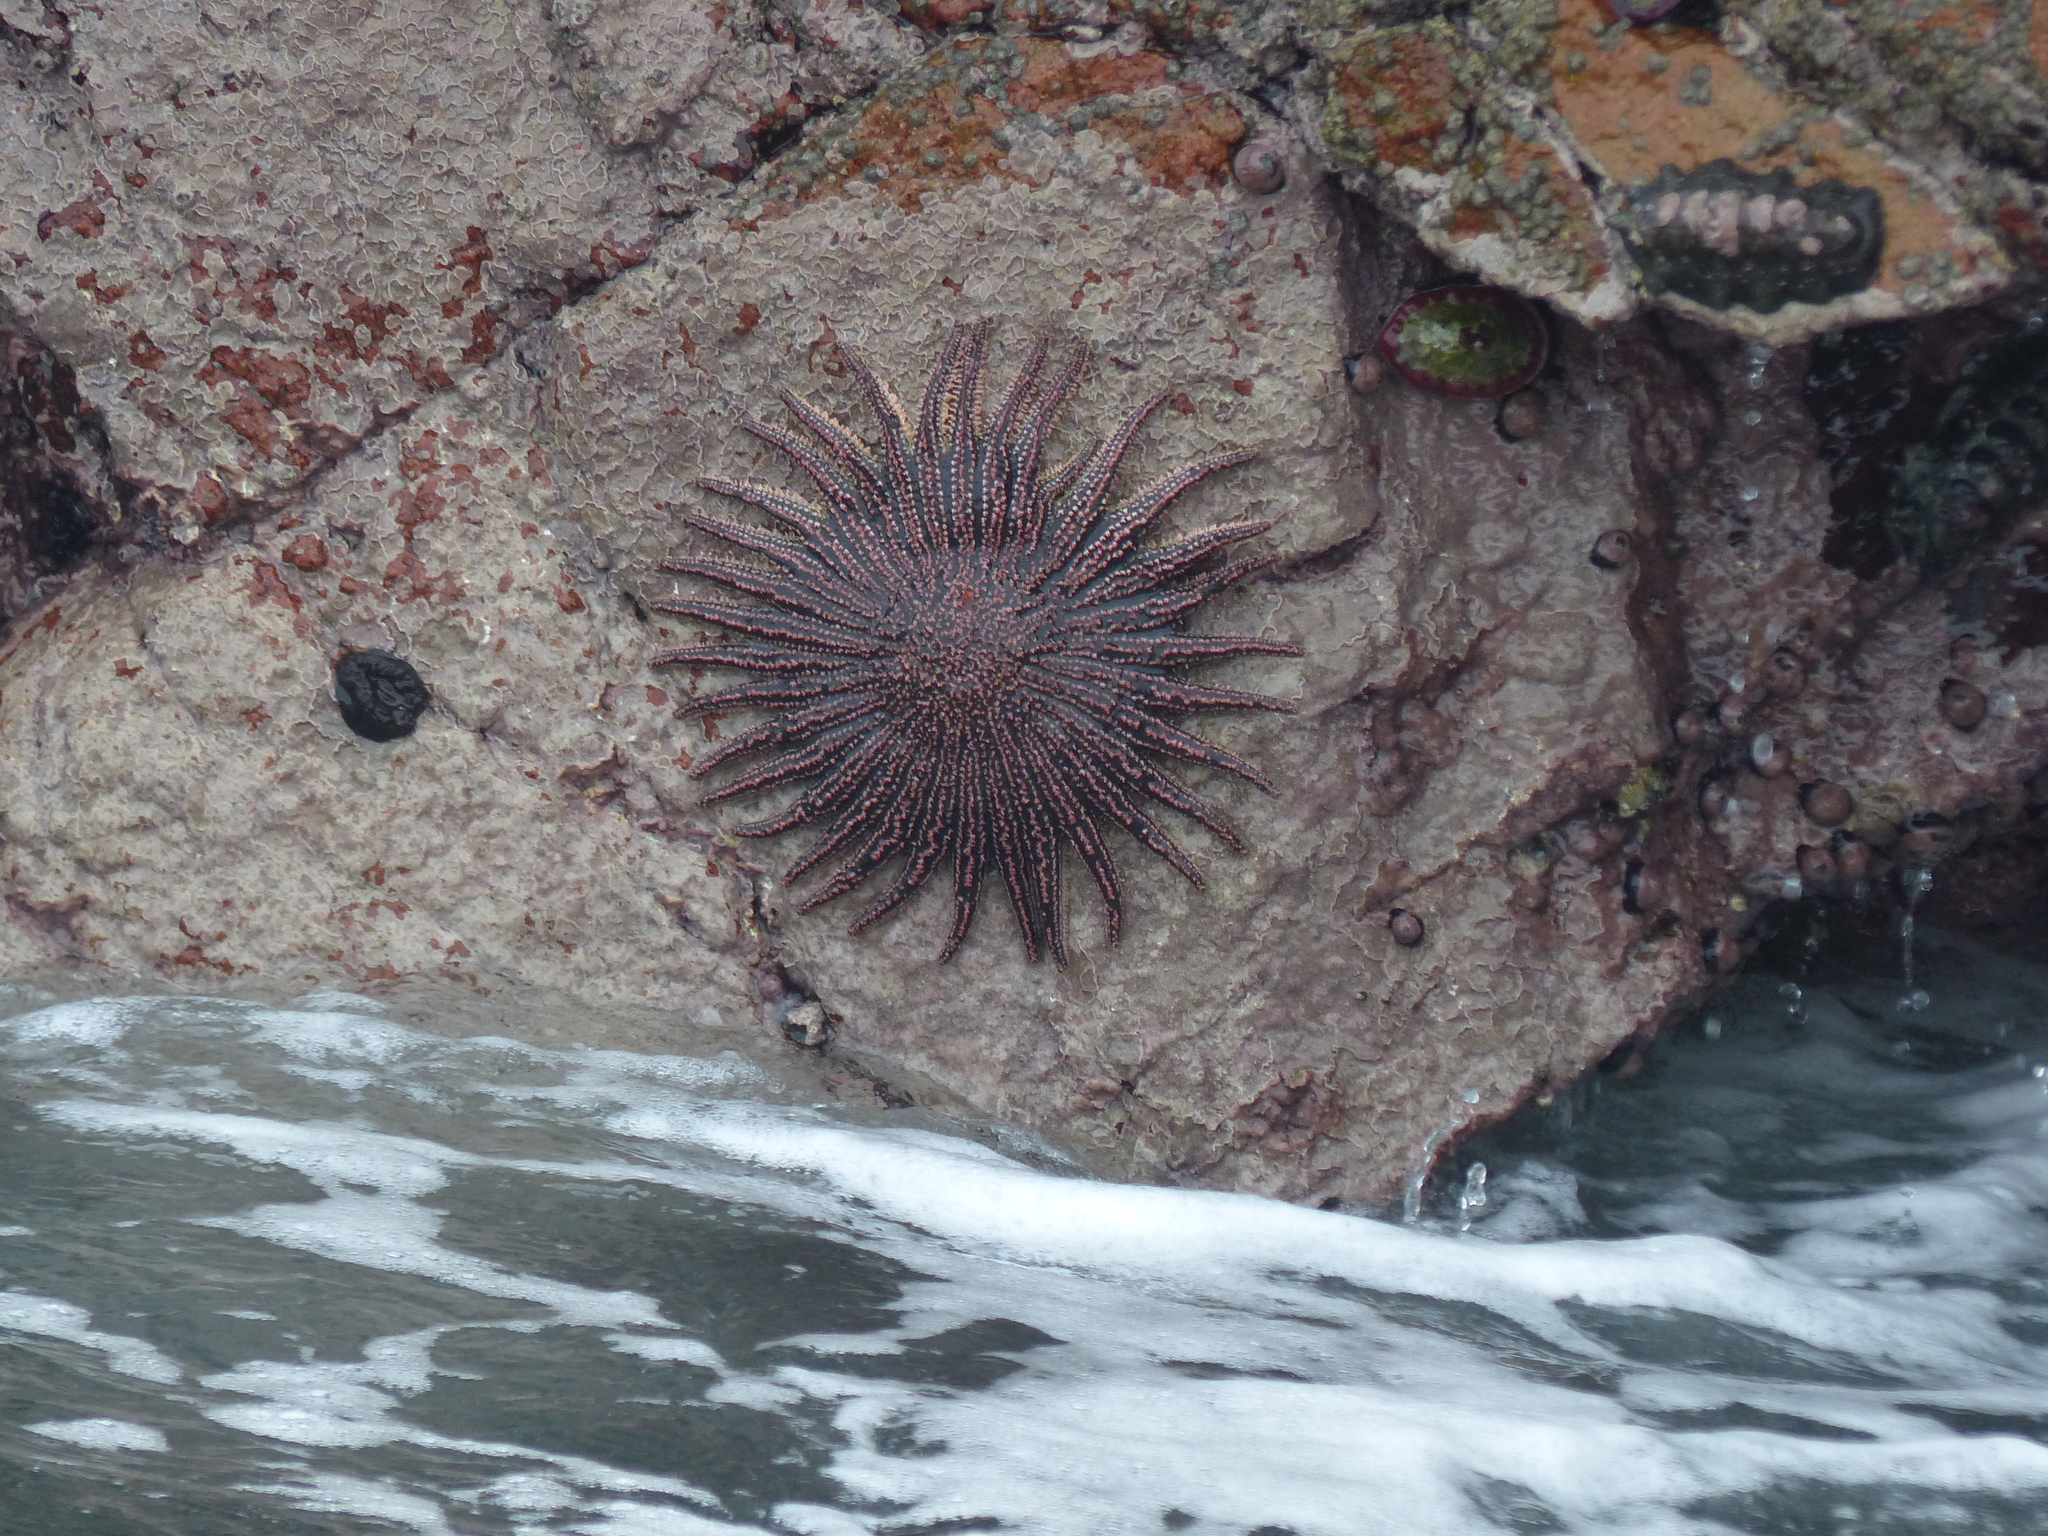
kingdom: Animalia
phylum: Echinodermata
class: Asteroidea
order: Forcipulatida
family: Heliasteridae
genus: Heliaster
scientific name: Heliaster helianthus
